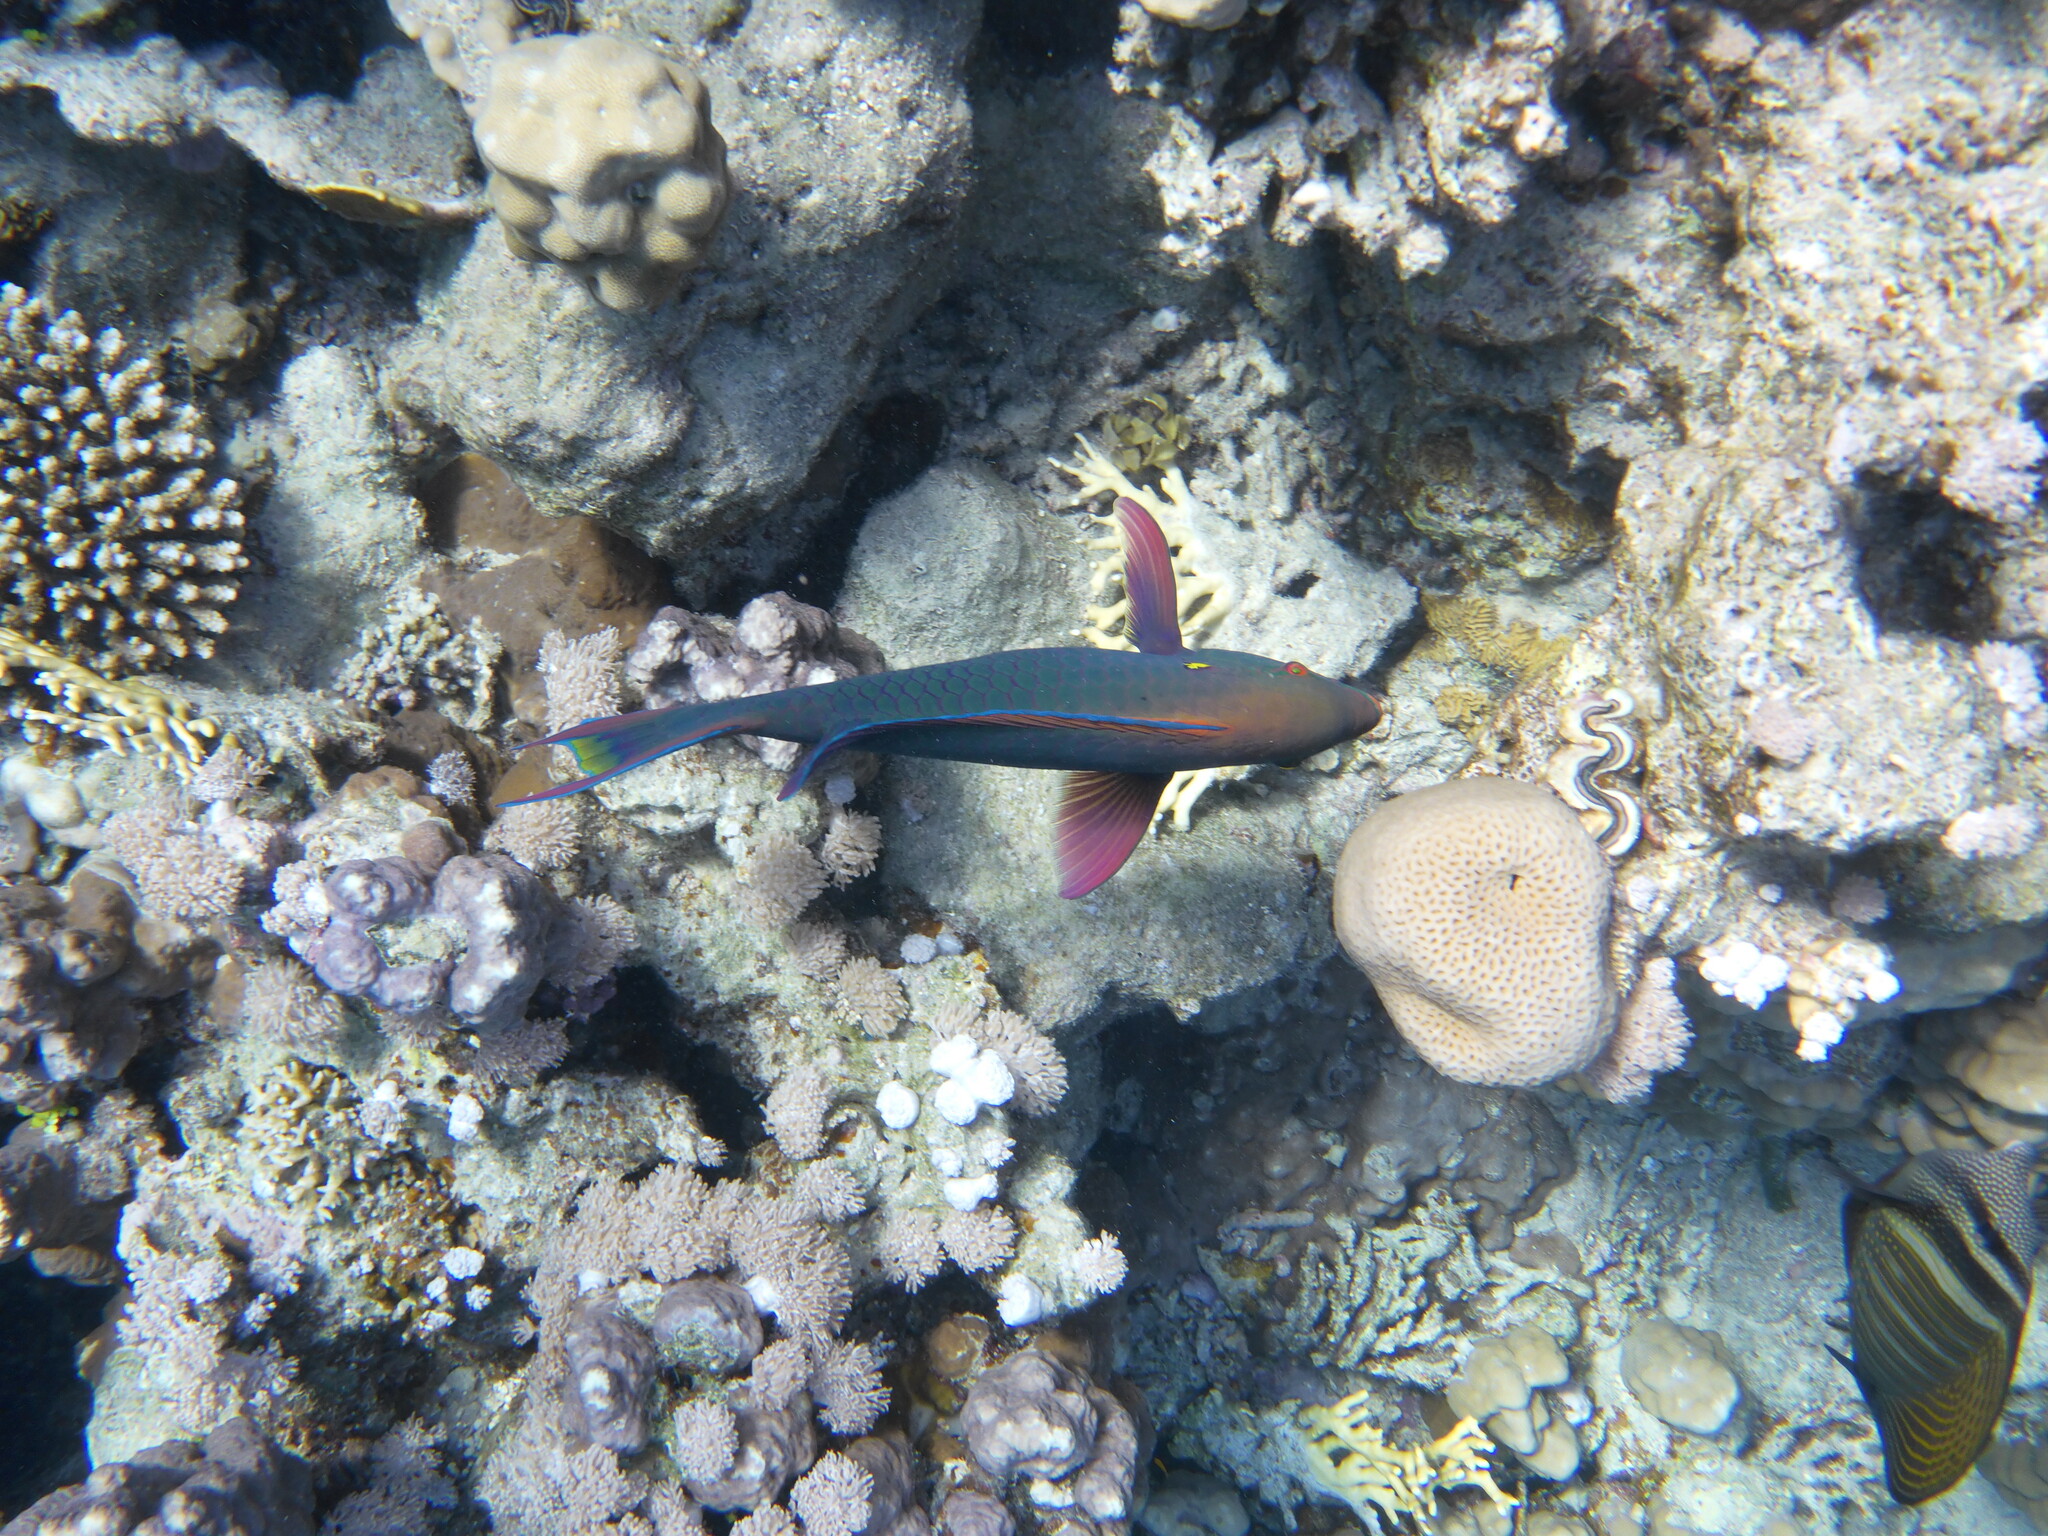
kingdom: Animalia
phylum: Chordata
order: Perciformes
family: Scaridae
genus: Scarus
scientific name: Scarus niger
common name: Dusky parrotfish
